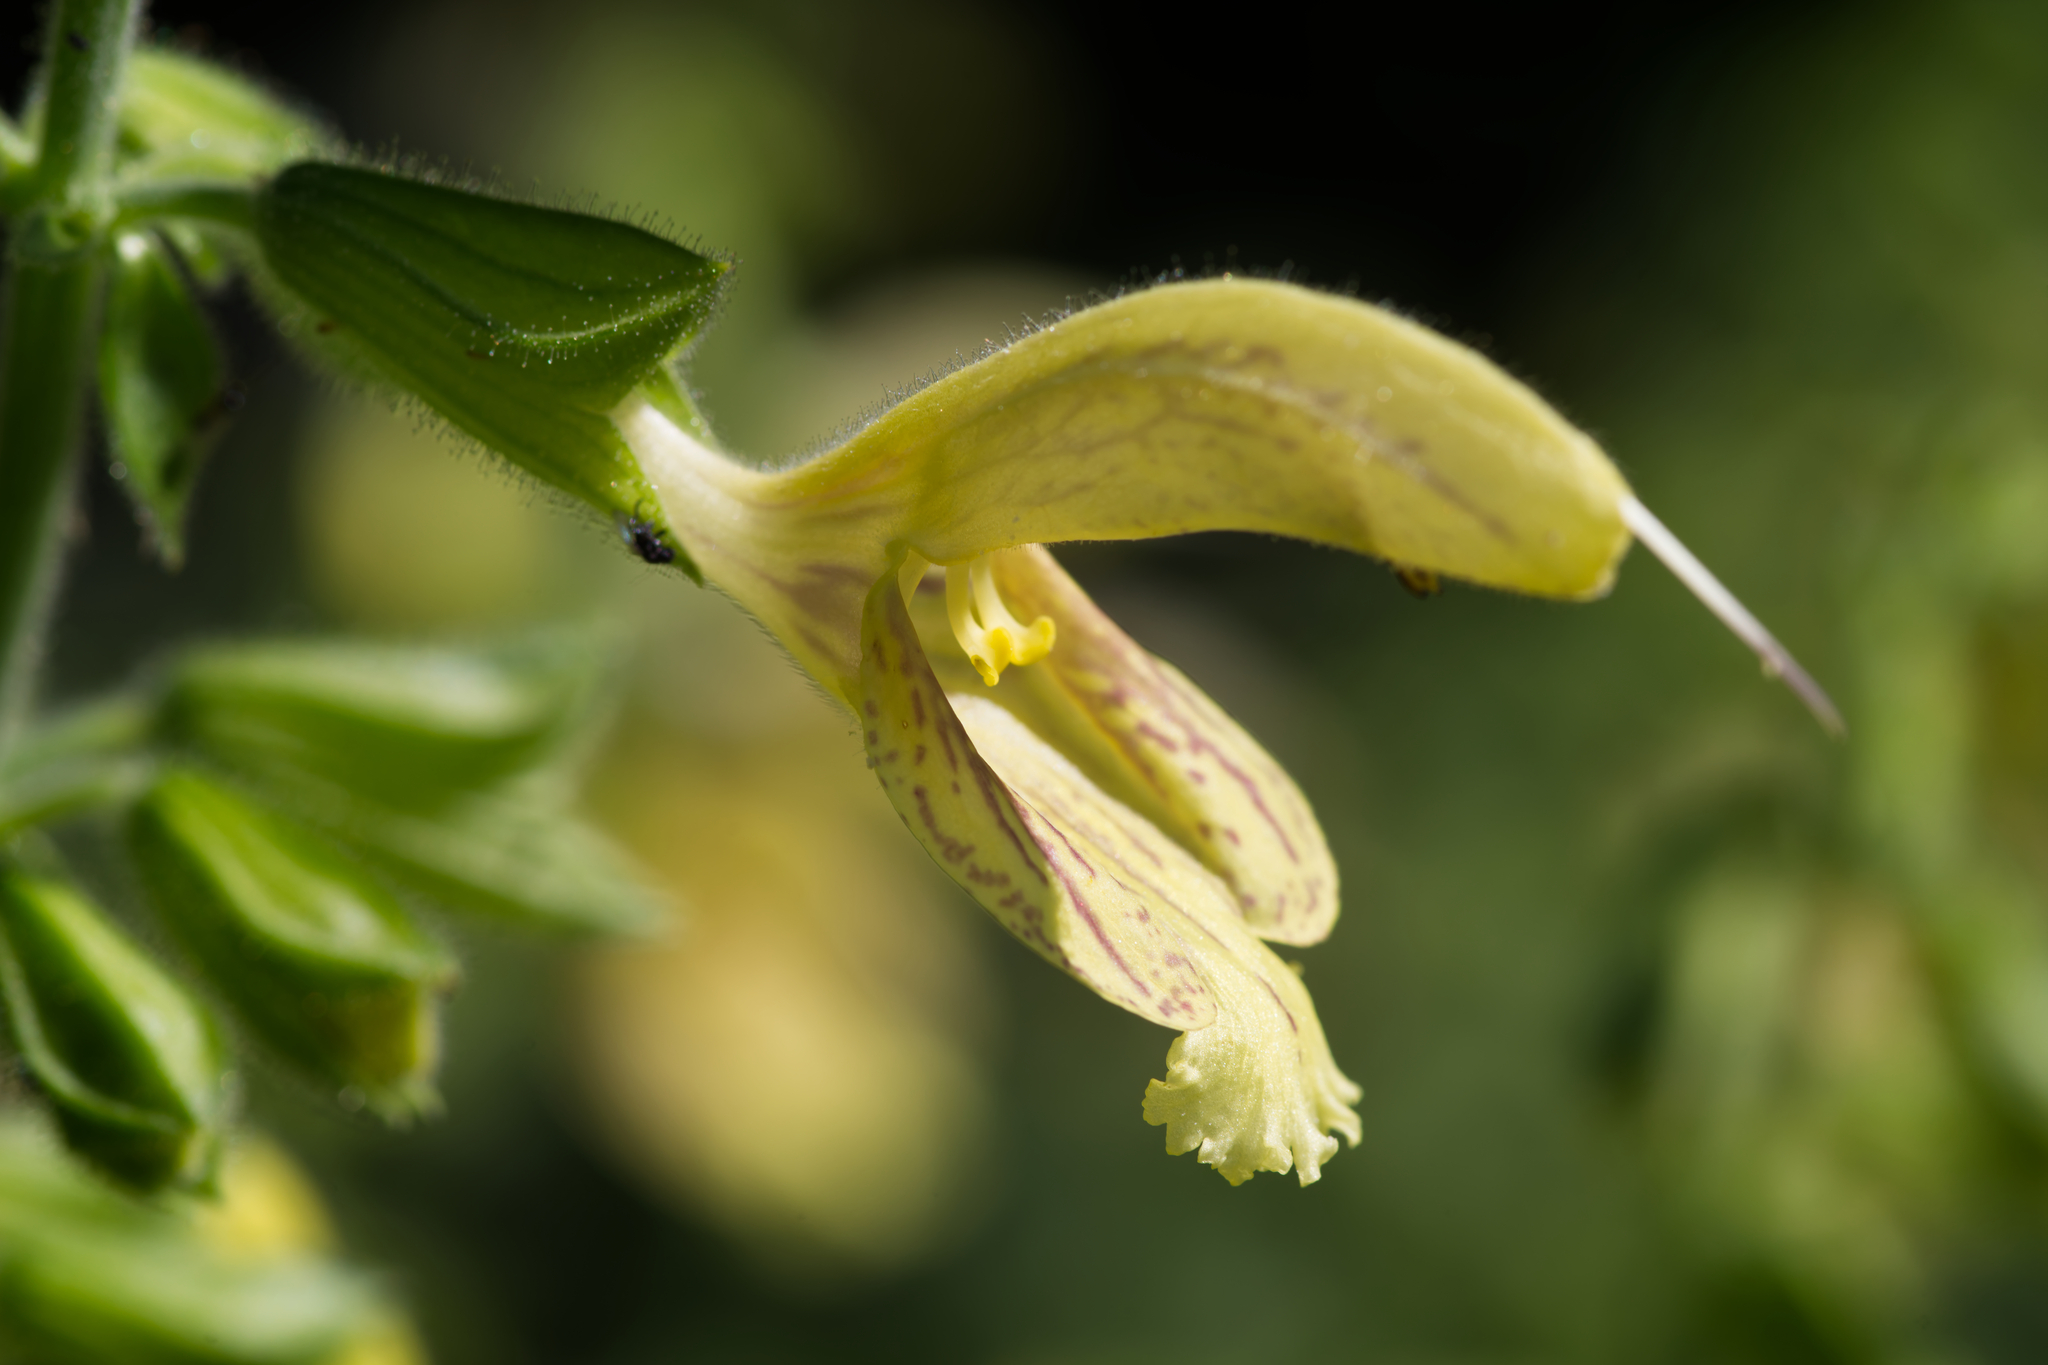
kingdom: Plantae
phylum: Tracheophyta
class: Magnoliopsida
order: Lamiales
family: Lamiaceae
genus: Salvia
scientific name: Salvia glutinosa
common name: Sticky clary
